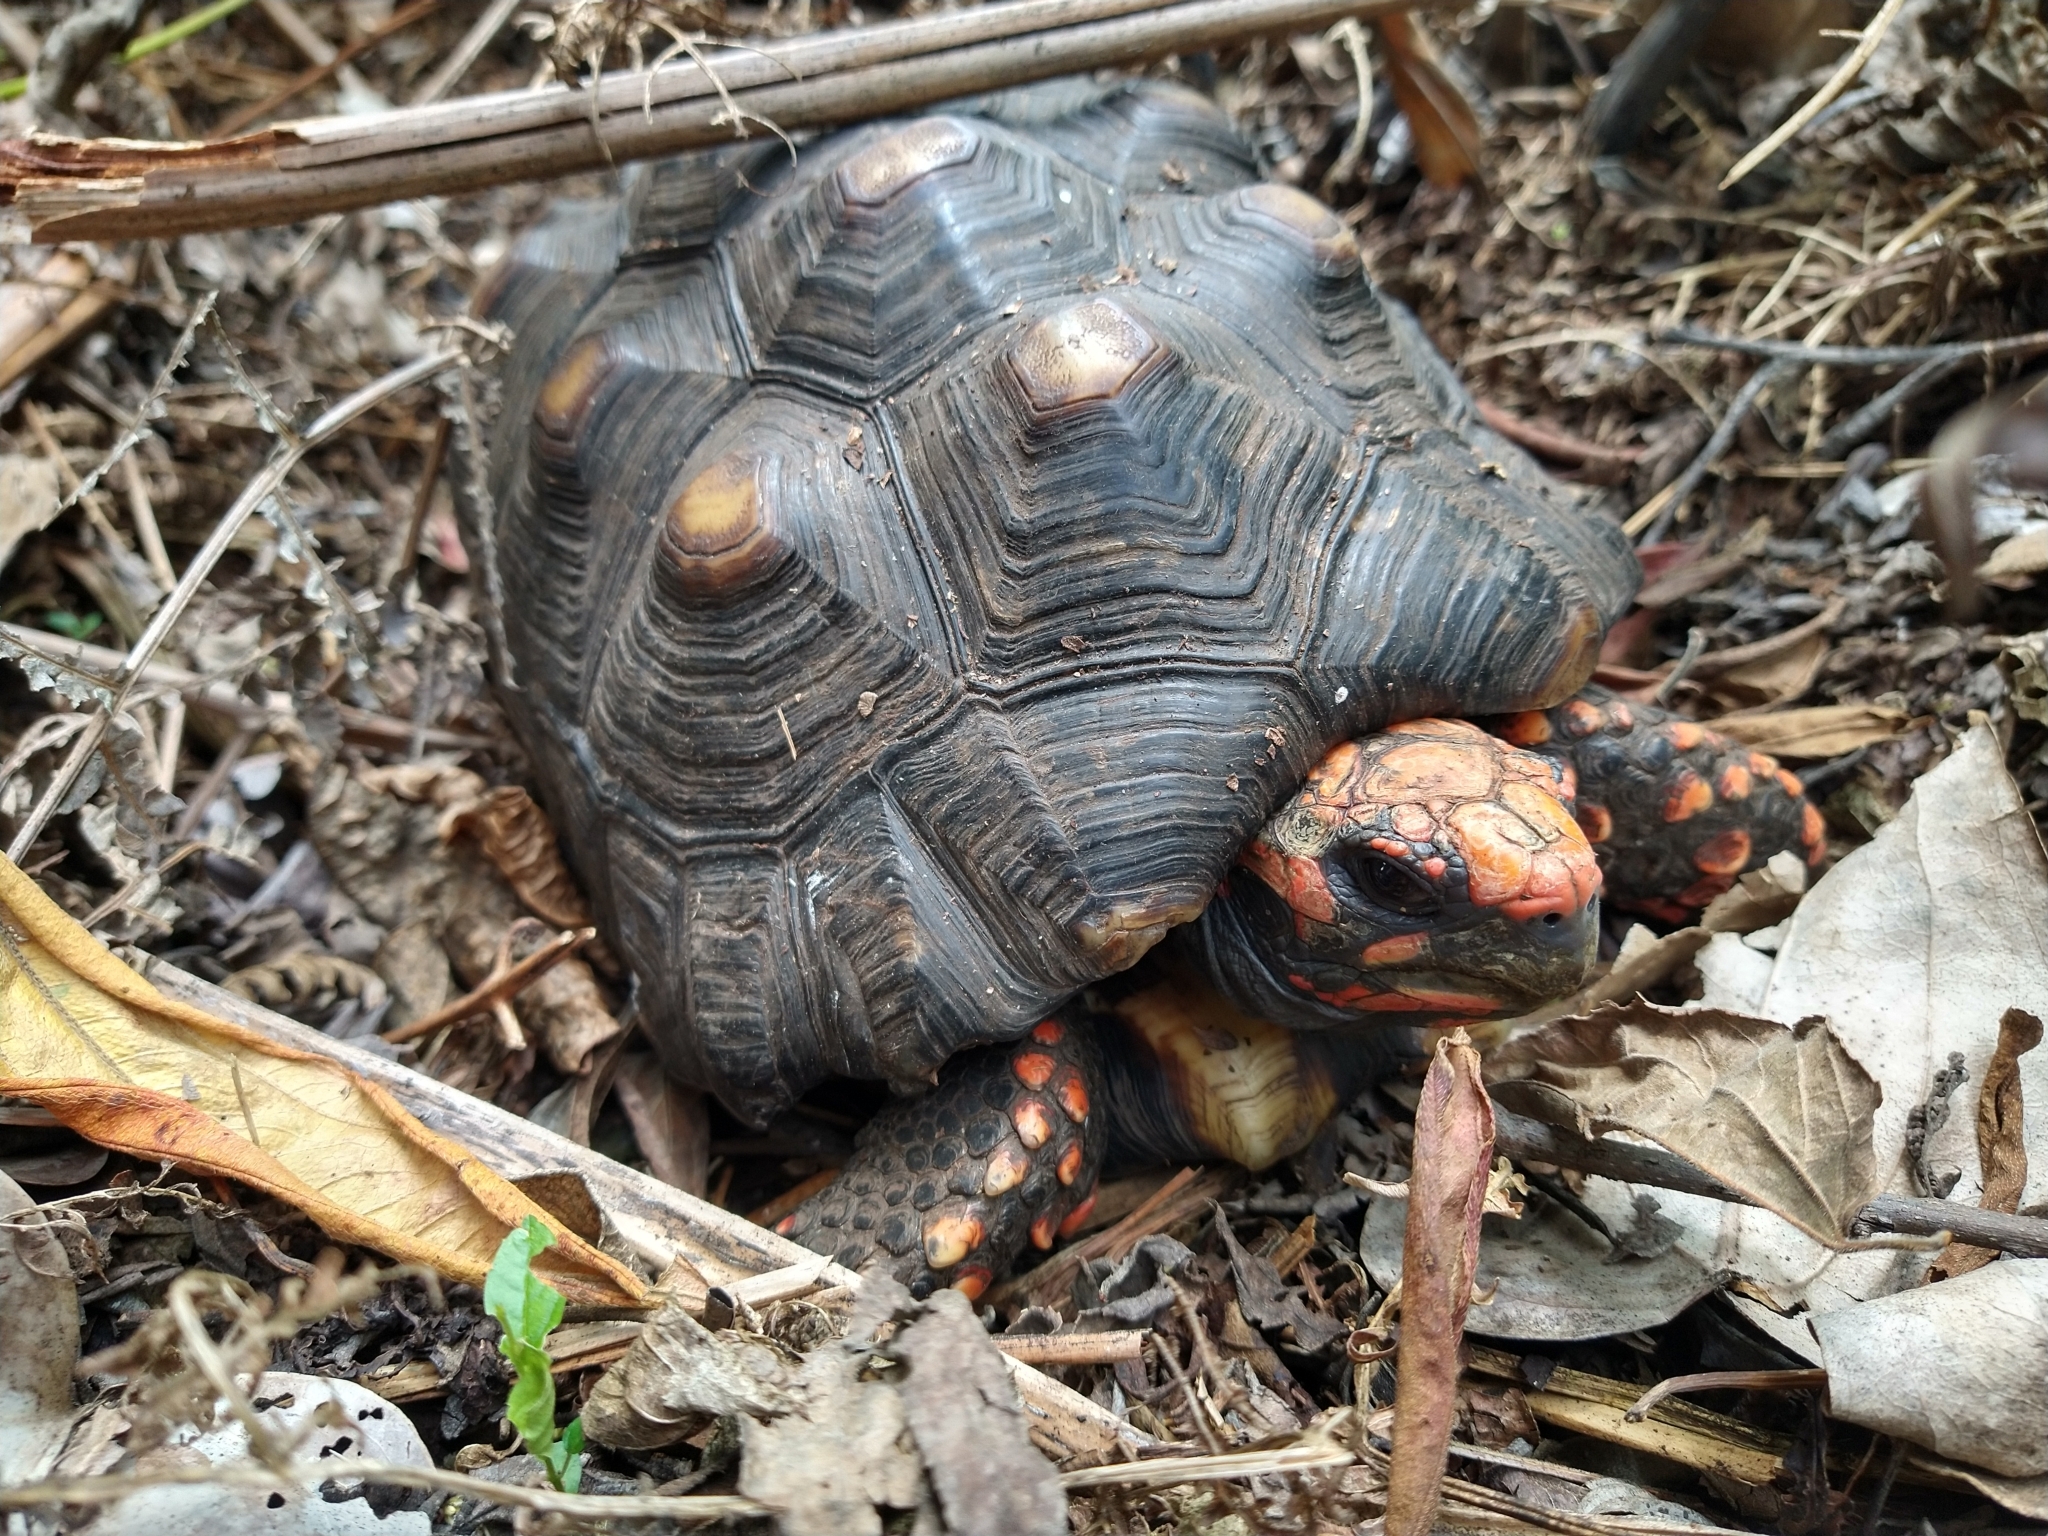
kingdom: Animalia
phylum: Chordata
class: Testudines
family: Testudinidae
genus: Chelonoidis
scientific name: Chelonoidis carbonarius
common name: Red-footed tortoise
